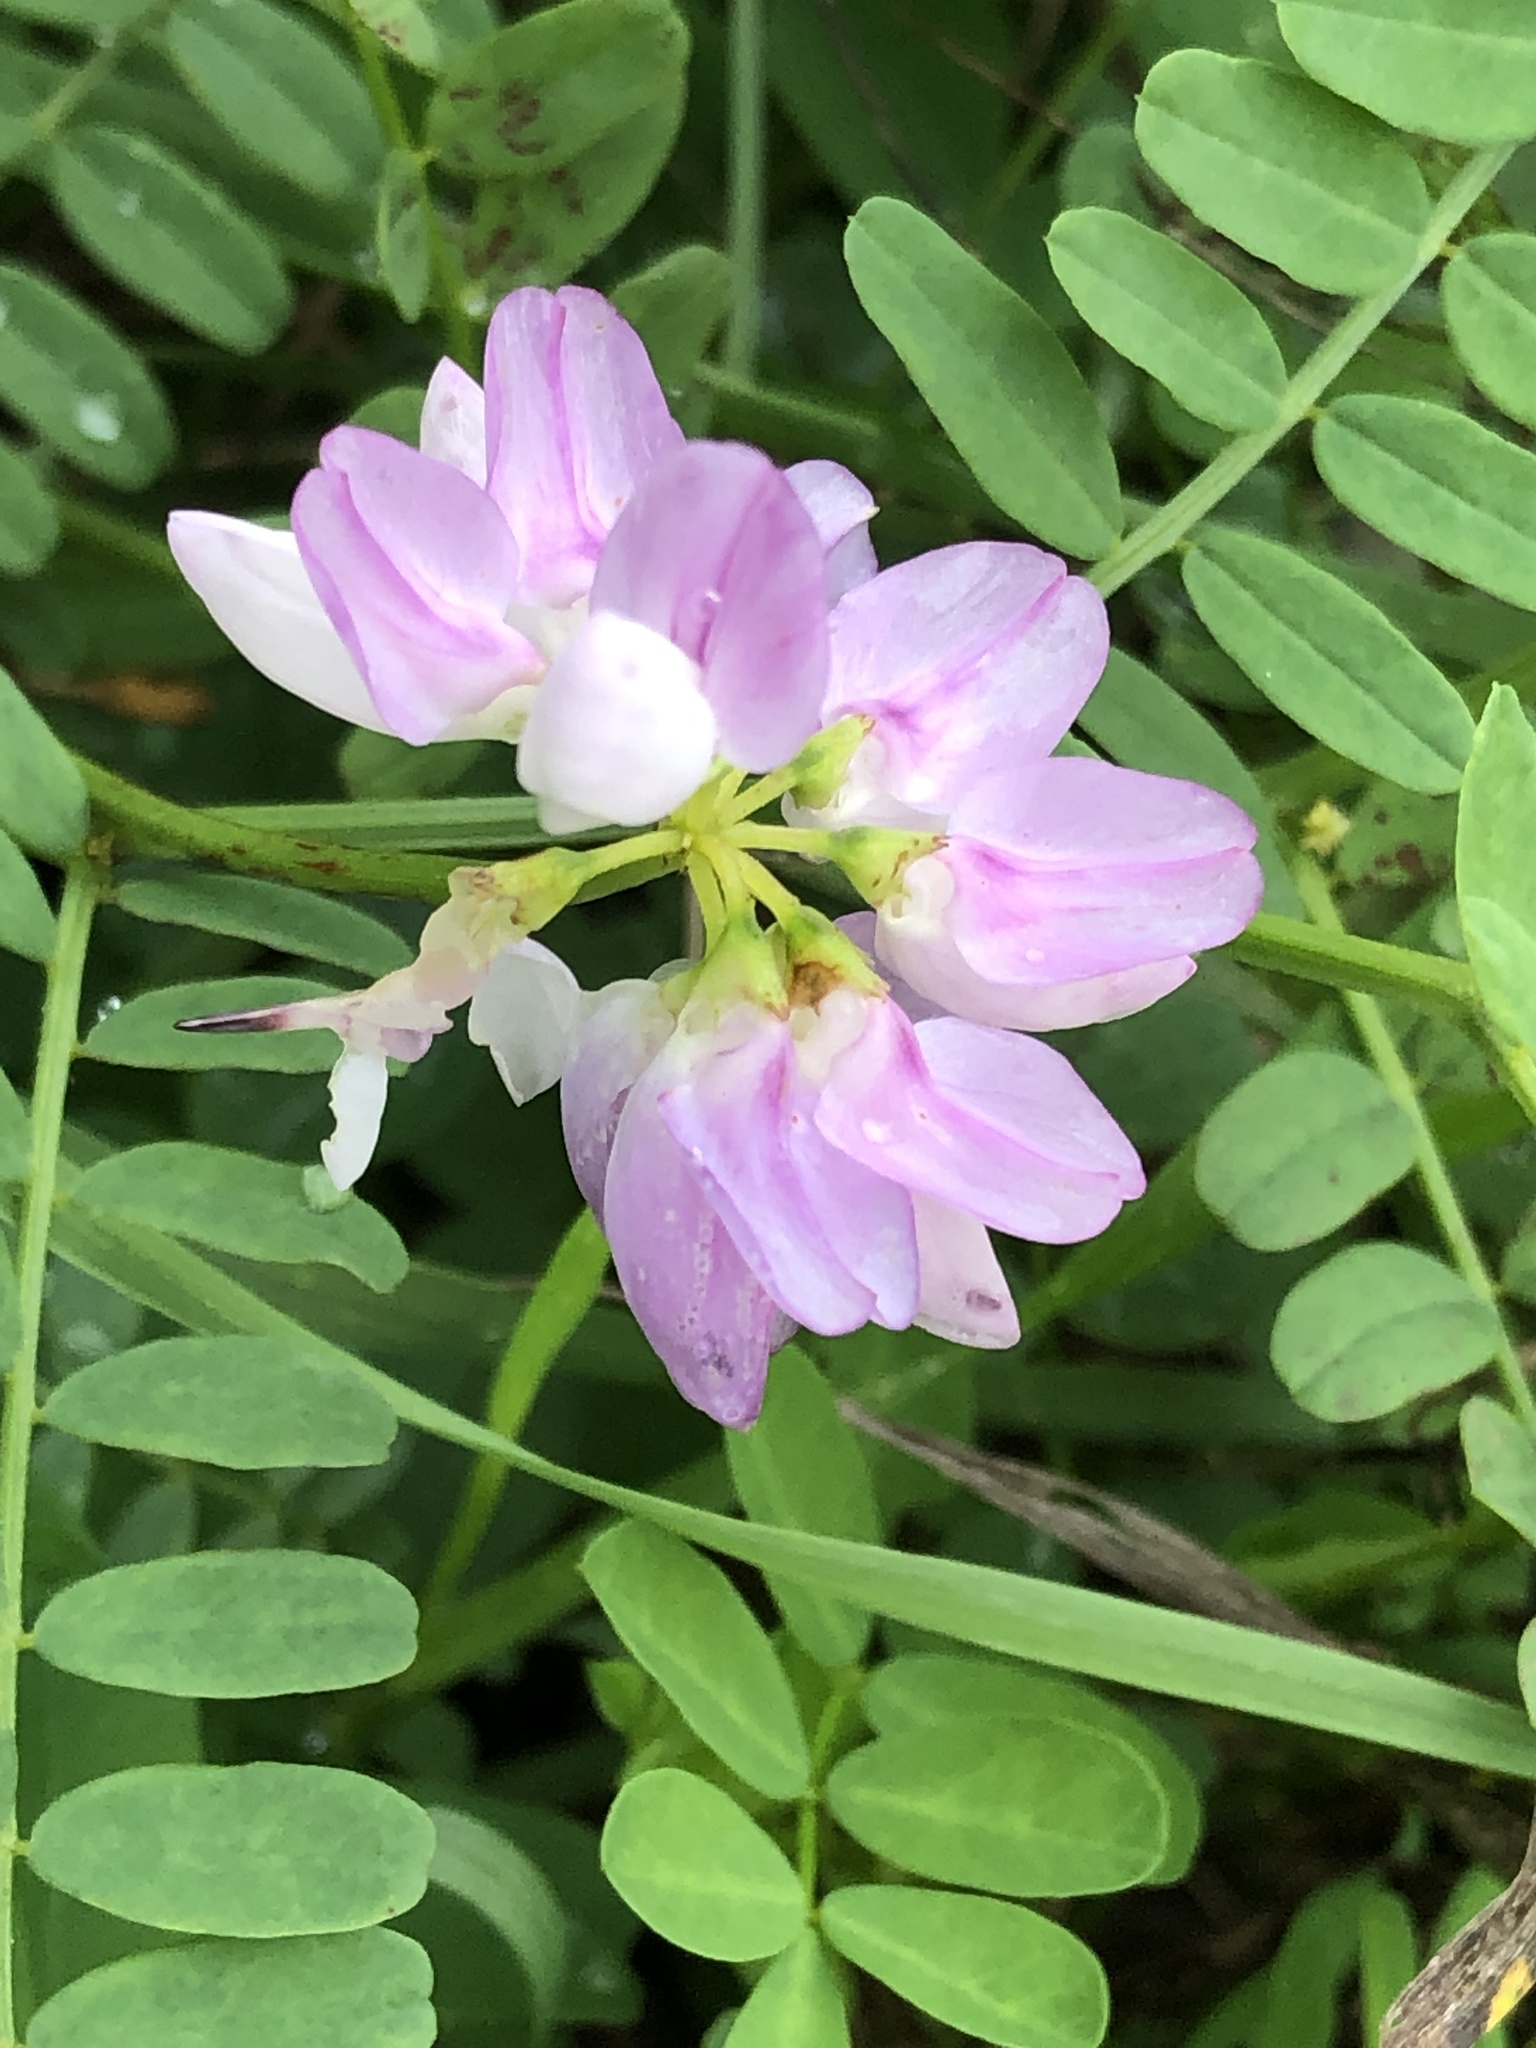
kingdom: Plantae
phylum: Tracheophyta
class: Magnoliopsida
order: Fabales
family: Fabaceae
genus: Coronilla
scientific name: Coronilla varia
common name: Crownvetch
